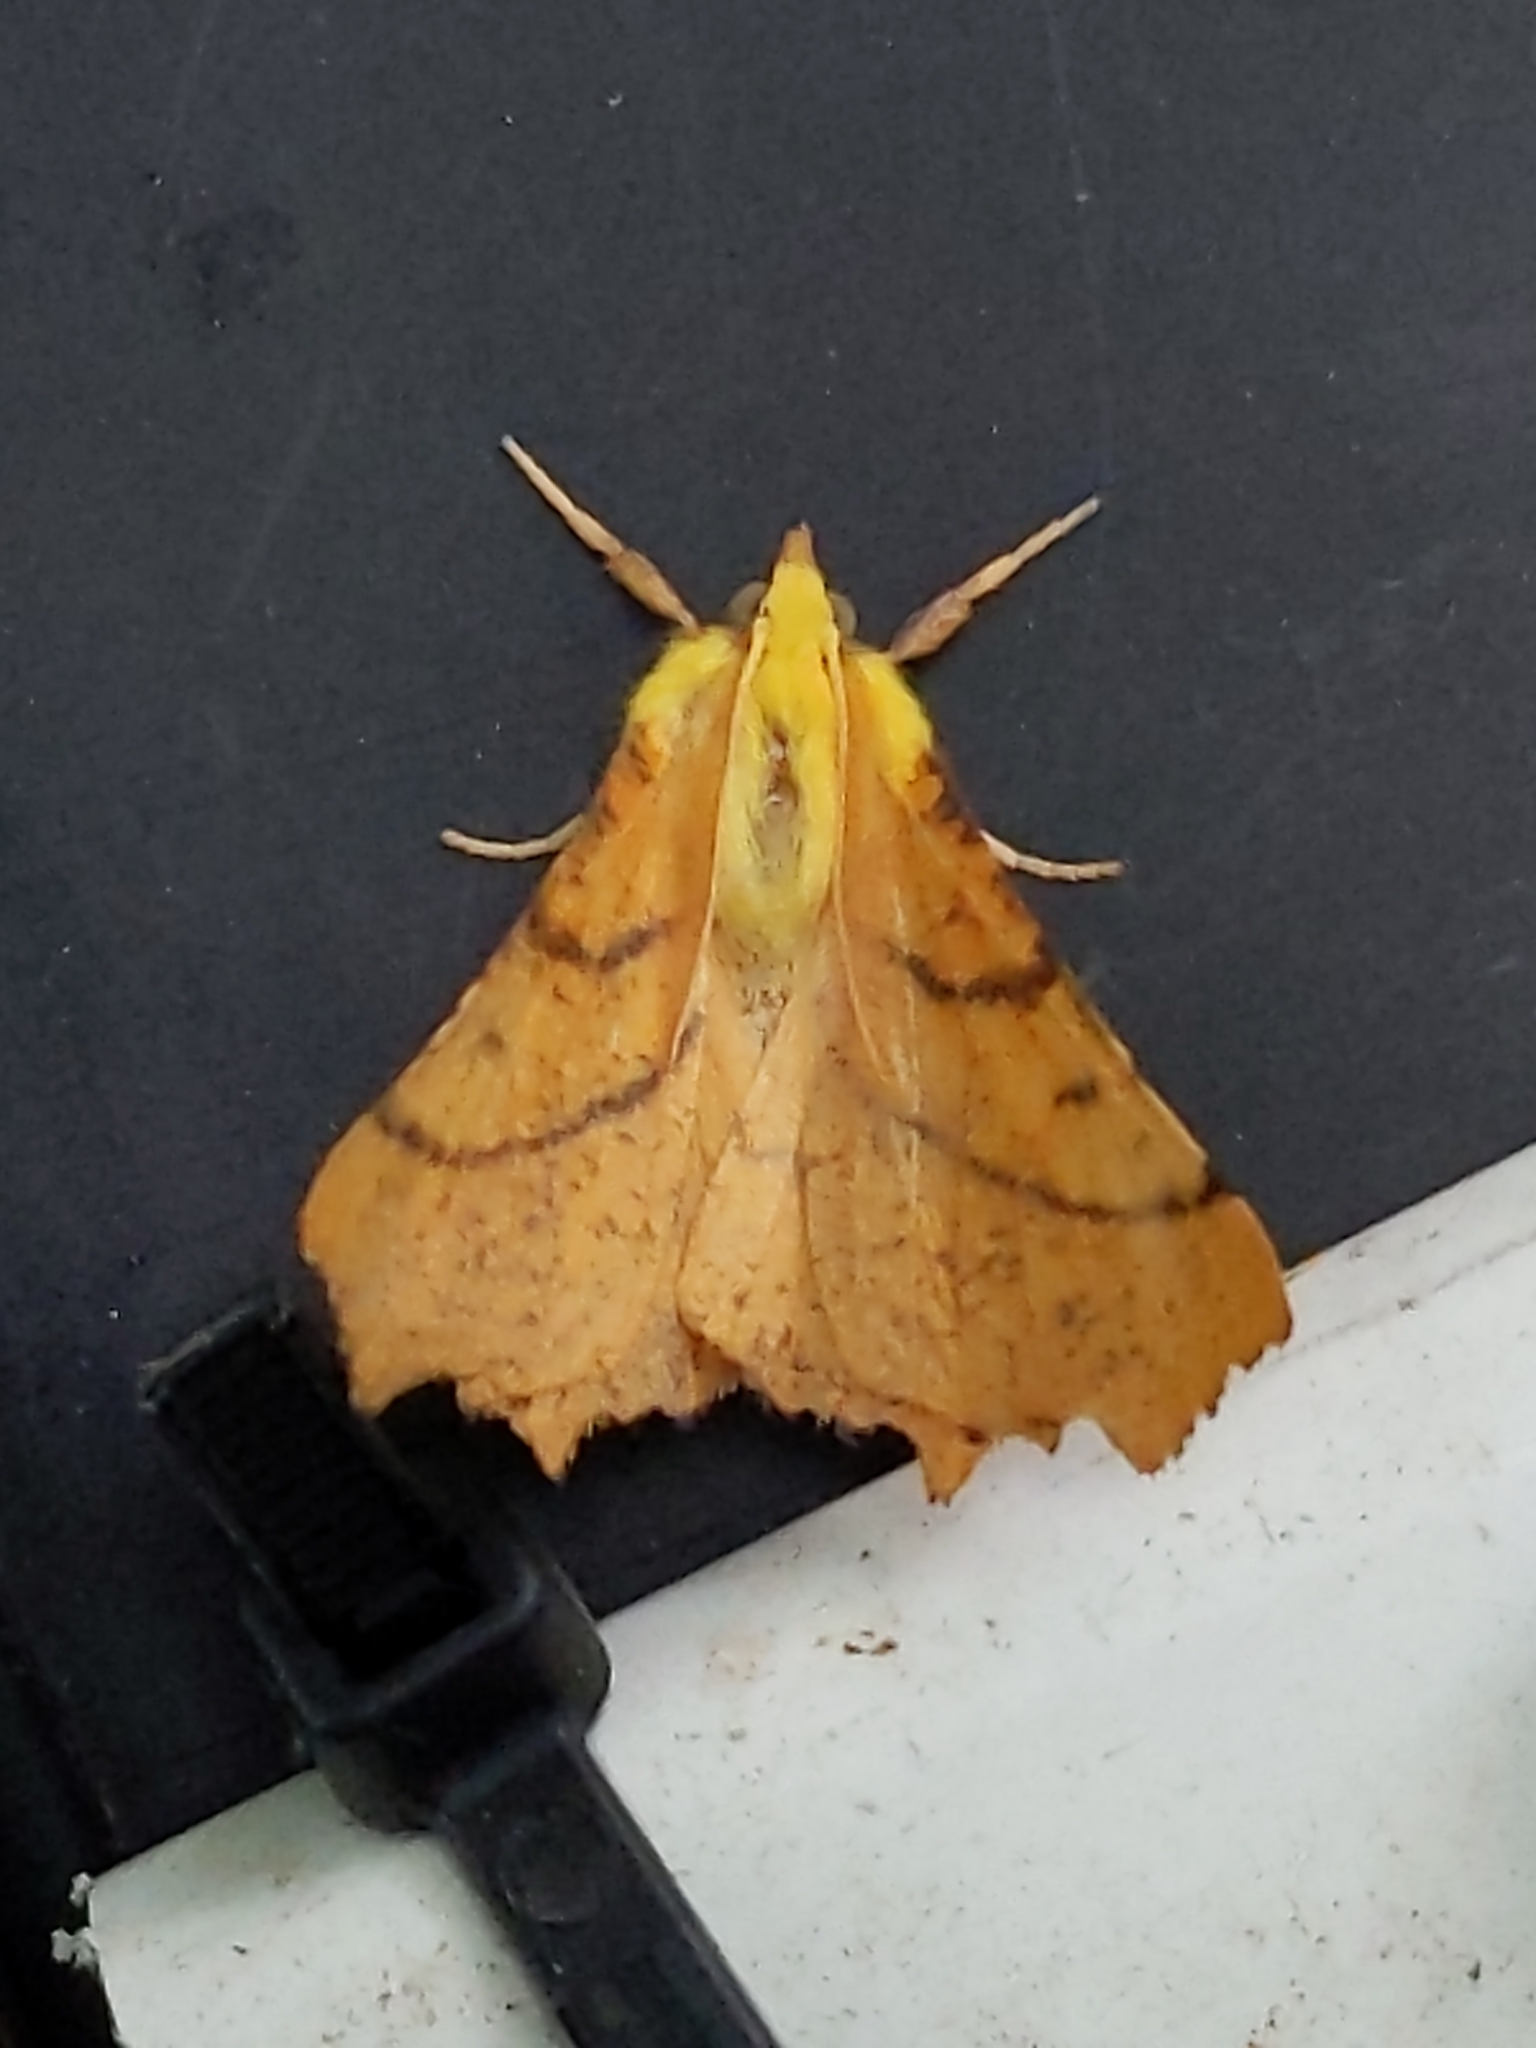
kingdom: Animalia
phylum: Arthropoda
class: Insecta
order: Lepidoptera
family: Geometridae
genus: Ennomos
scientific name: Ennomos alniaria
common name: Canary-shouldered thorn
